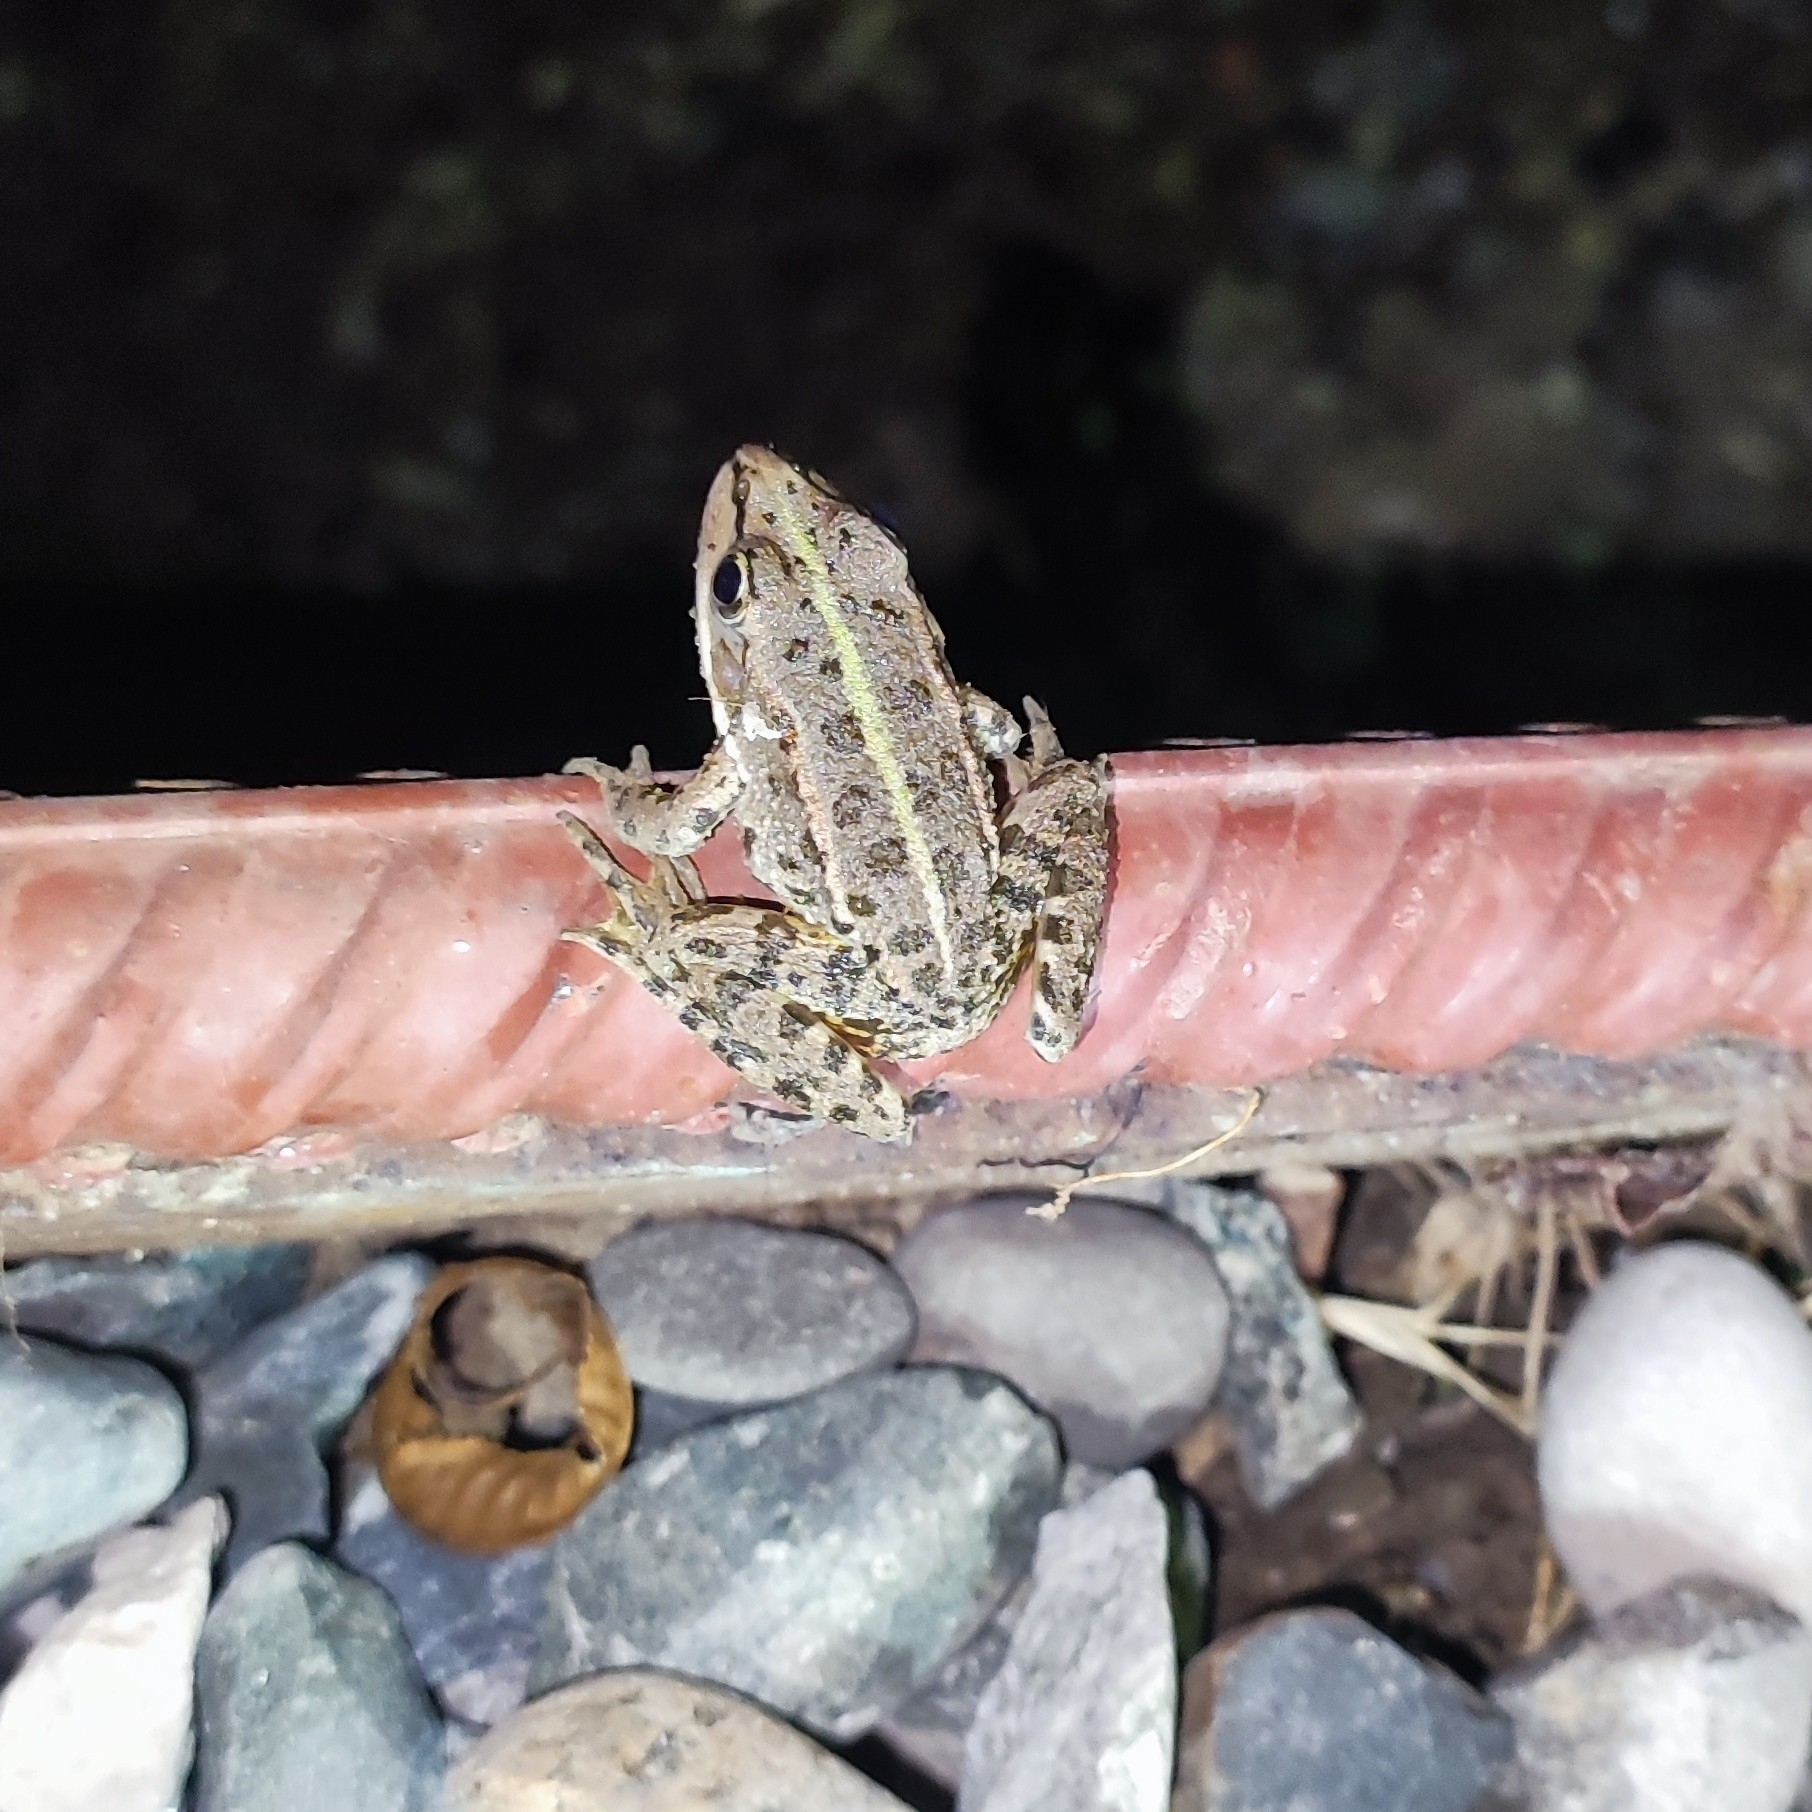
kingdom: Animalia
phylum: Chordata
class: Amphibia
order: Anura
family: Ranidae
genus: Pelophylax
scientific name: Pelophylax ridibundus
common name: Marsh frog
